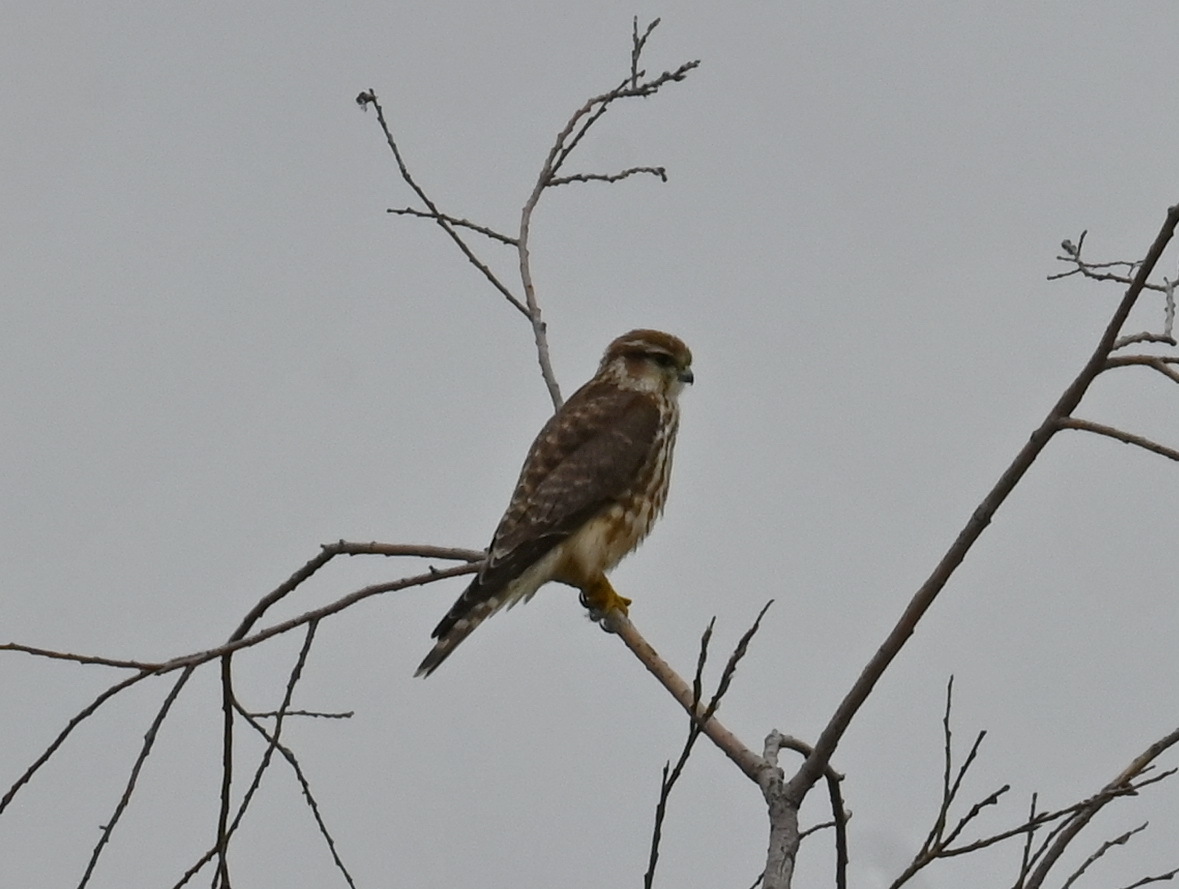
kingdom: Animalia
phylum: Chordata
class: Aves
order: Falconiformes
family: Falconidae
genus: Falco
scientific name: Falco columbarius
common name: Merlin
